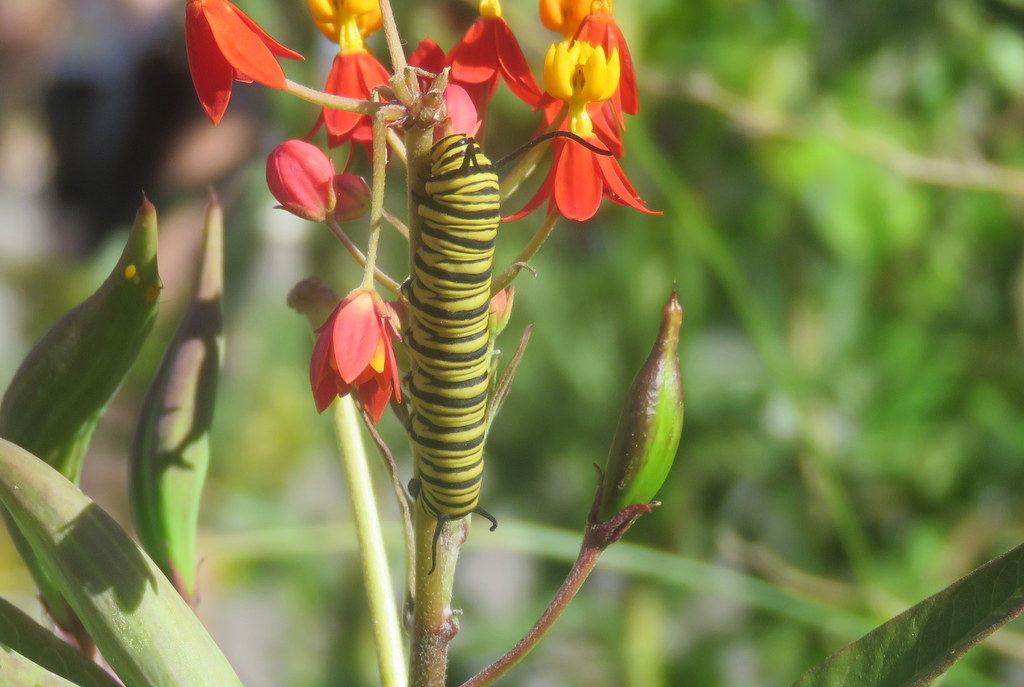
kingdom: Animalia
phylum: Arthropoda
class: Insecta
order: Lepidoptera
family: Nymphalidae
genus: Danaus
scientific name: Danaus erippus
